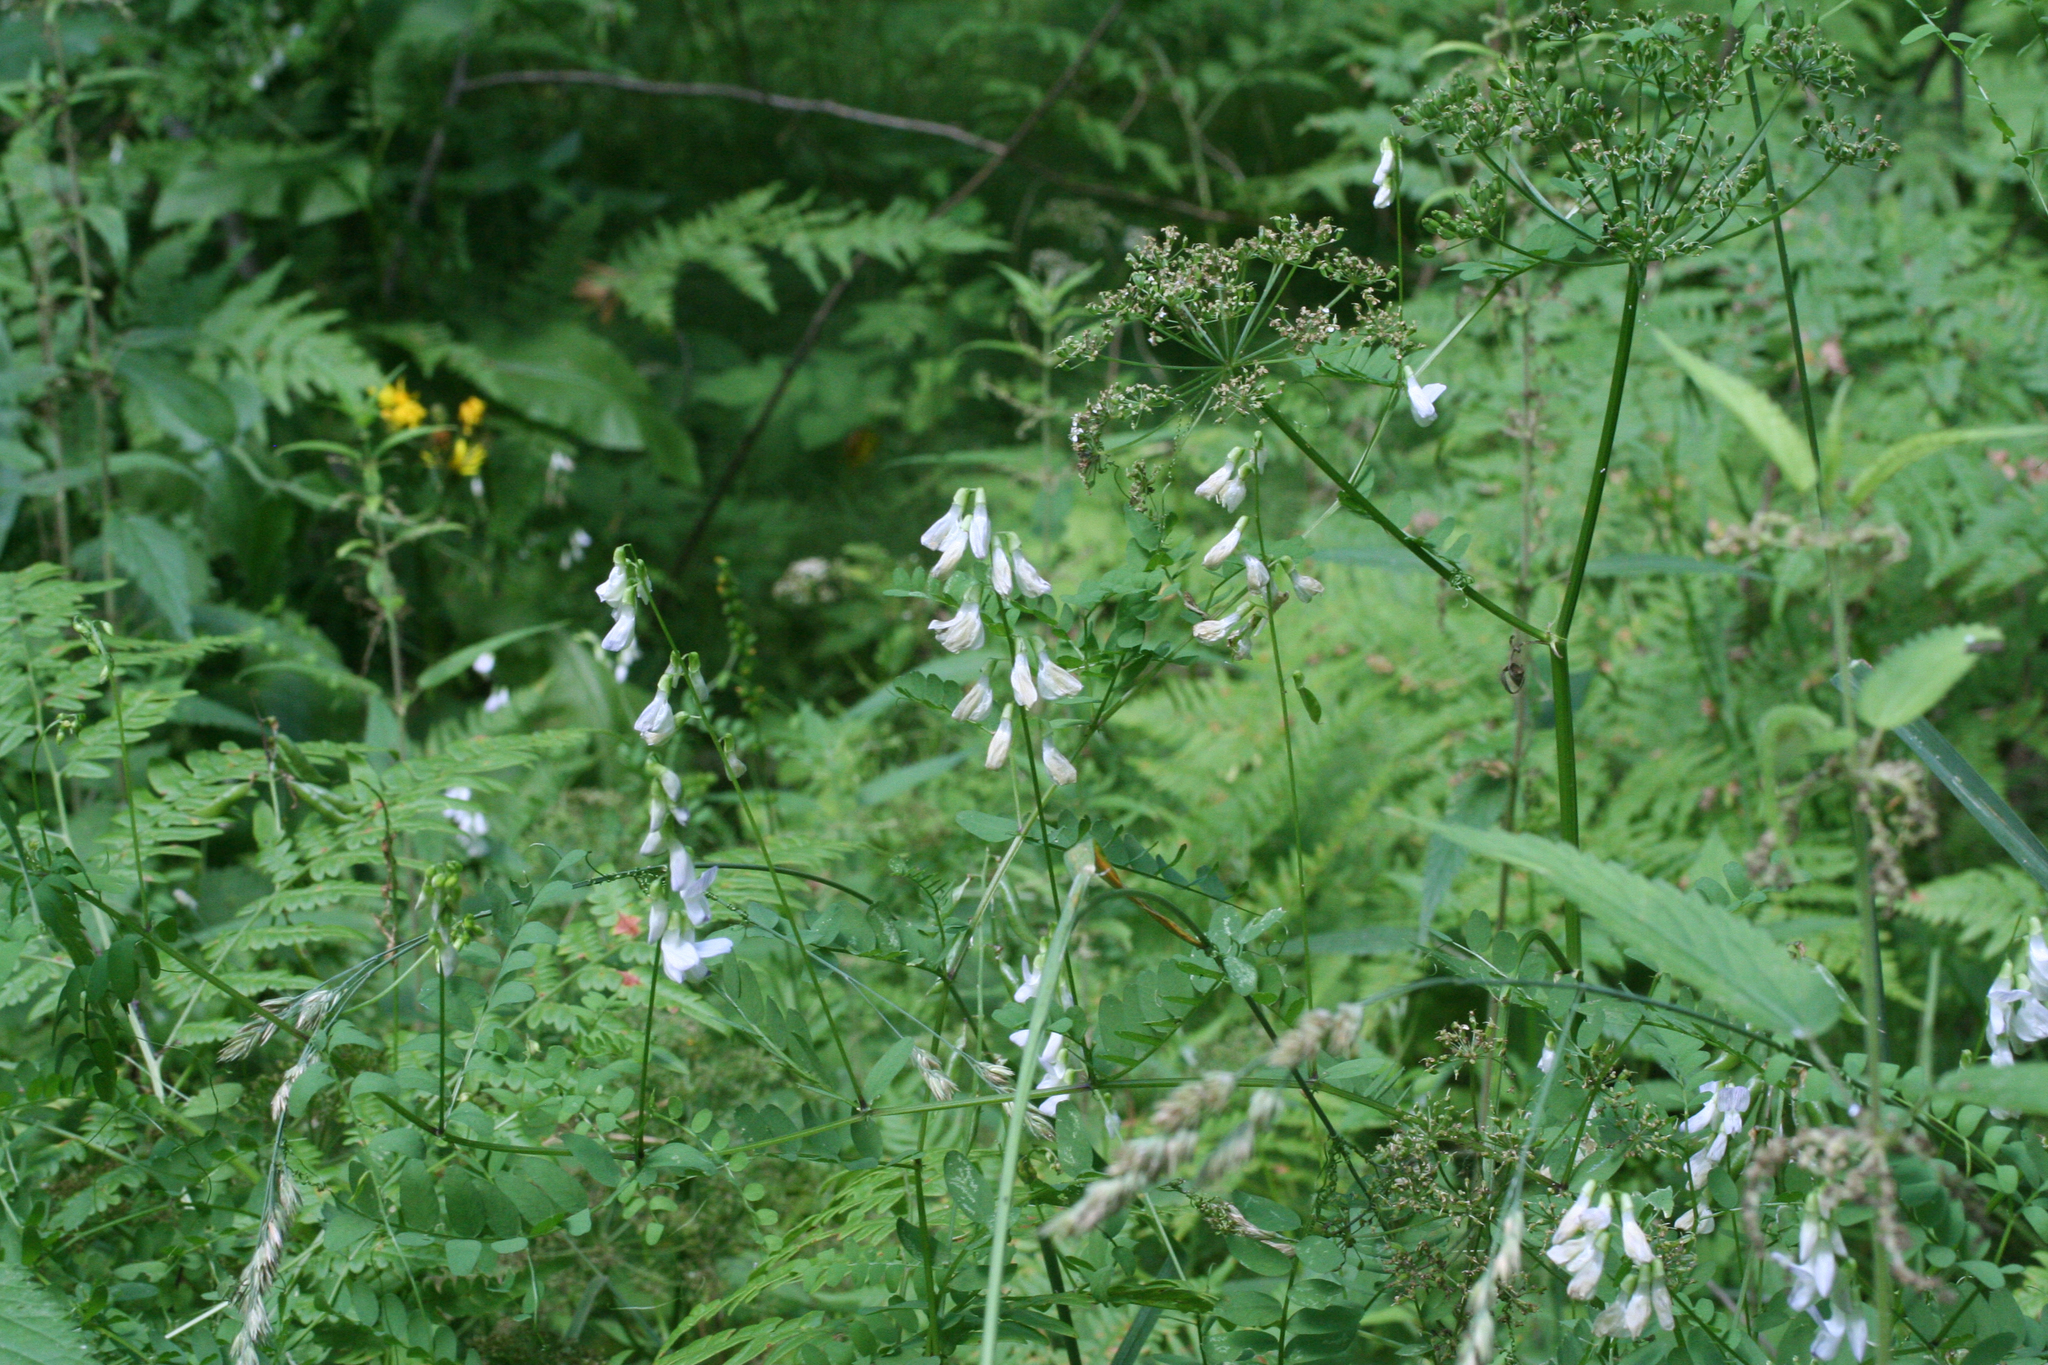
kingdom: Plantae
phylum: Tracheophyta
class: Magnoliopsida
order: Fabales
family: Fabaceae
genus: Vicia
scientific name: Vicia sylvatica
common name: Wood vetch
